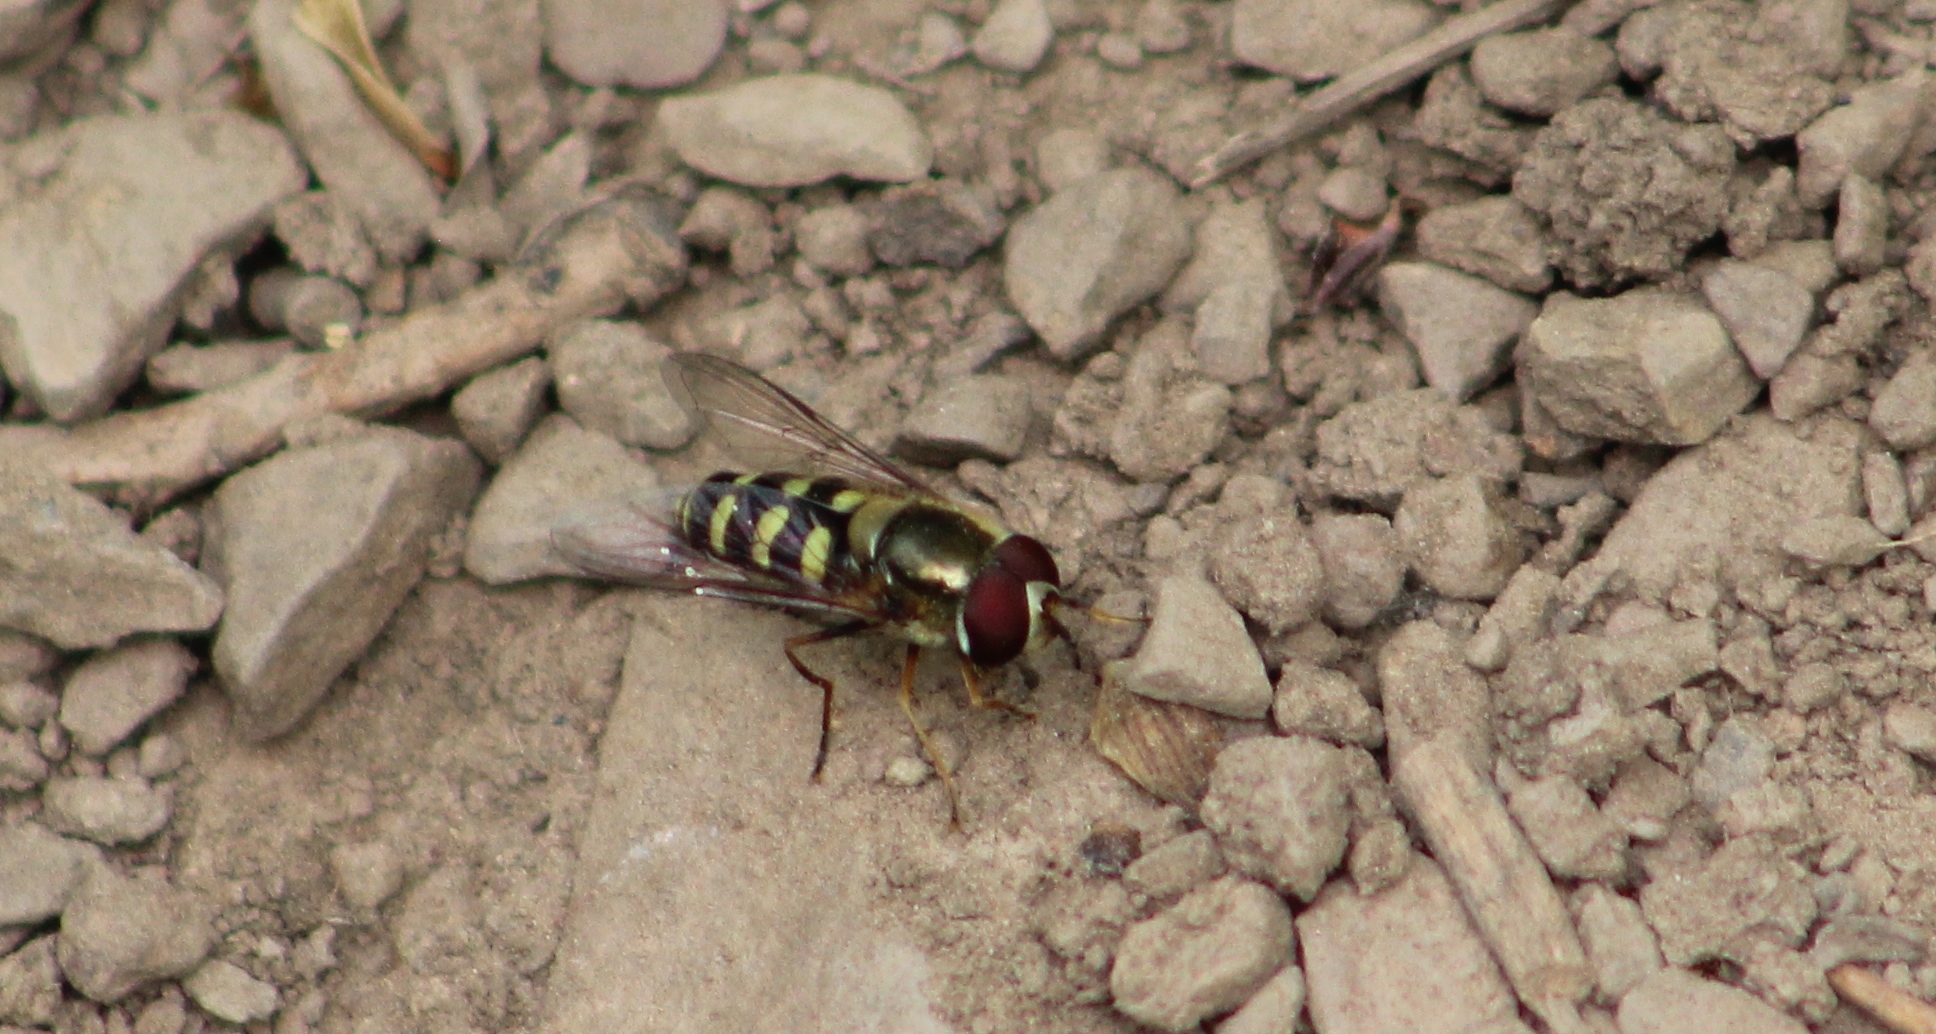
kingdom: Animalia
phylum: Arthropoda
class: Insecta
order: Diptera
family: Syrphidae
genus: Lapposyrphus
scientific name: Lapposyrphus lapponicus
